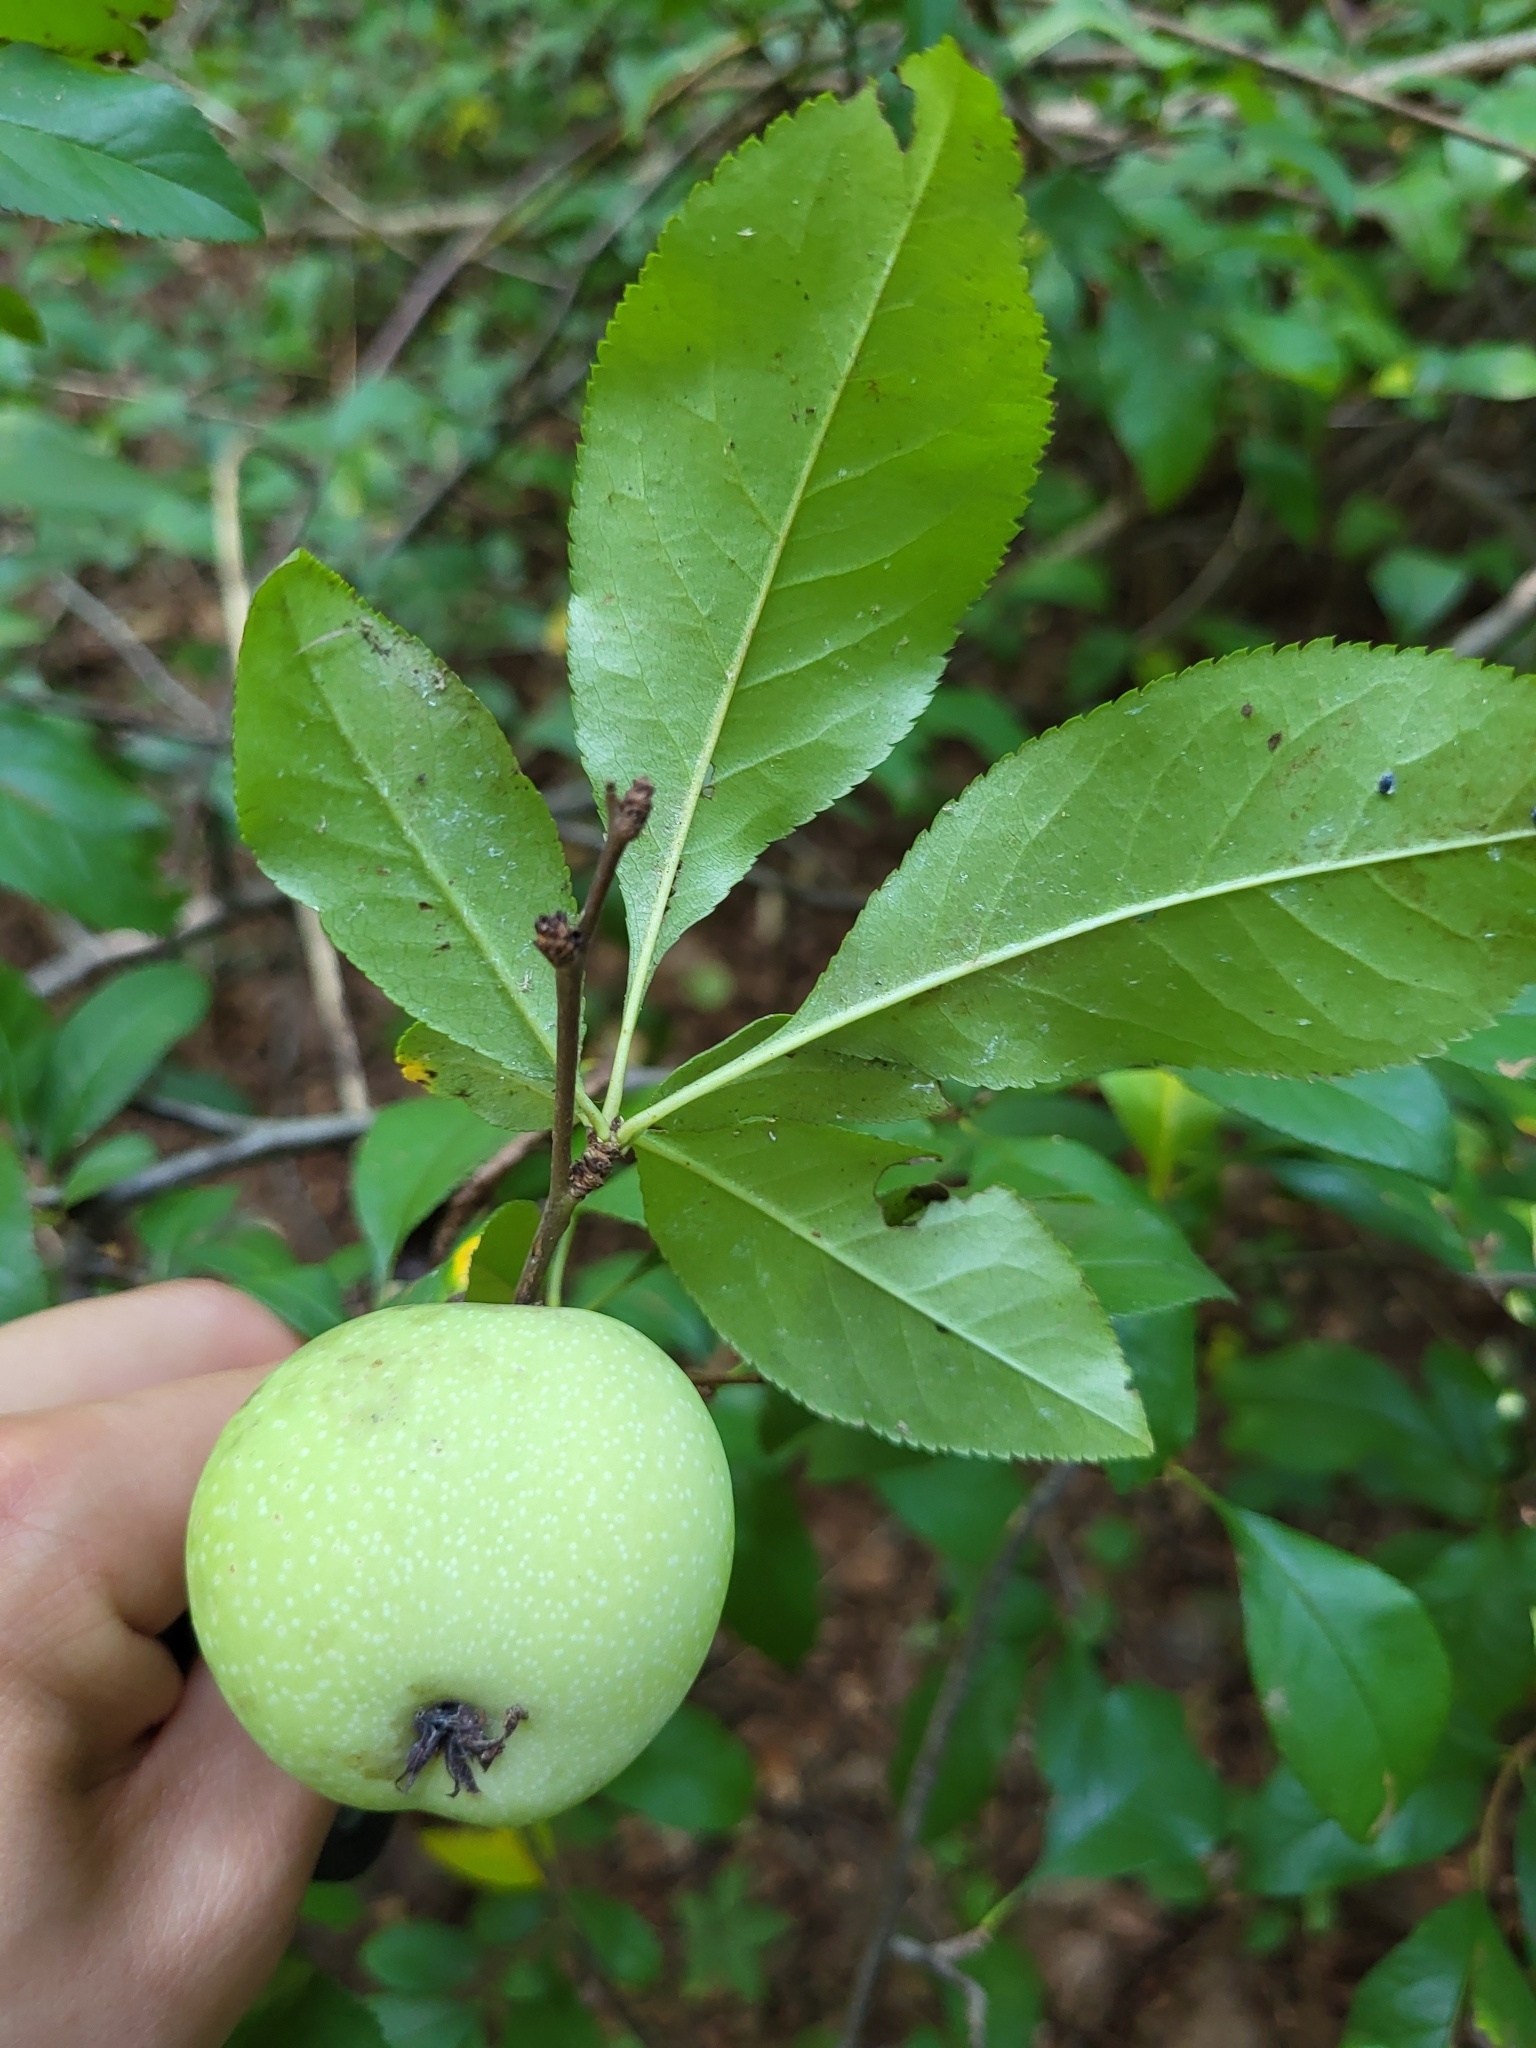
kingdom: Plantae
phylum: Tracheophyta
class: Magnoliopsida
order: Rosales
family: Rosaceae
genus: Chaenomeles
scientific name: Chaenomeles speciosa
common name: Japanese quince
